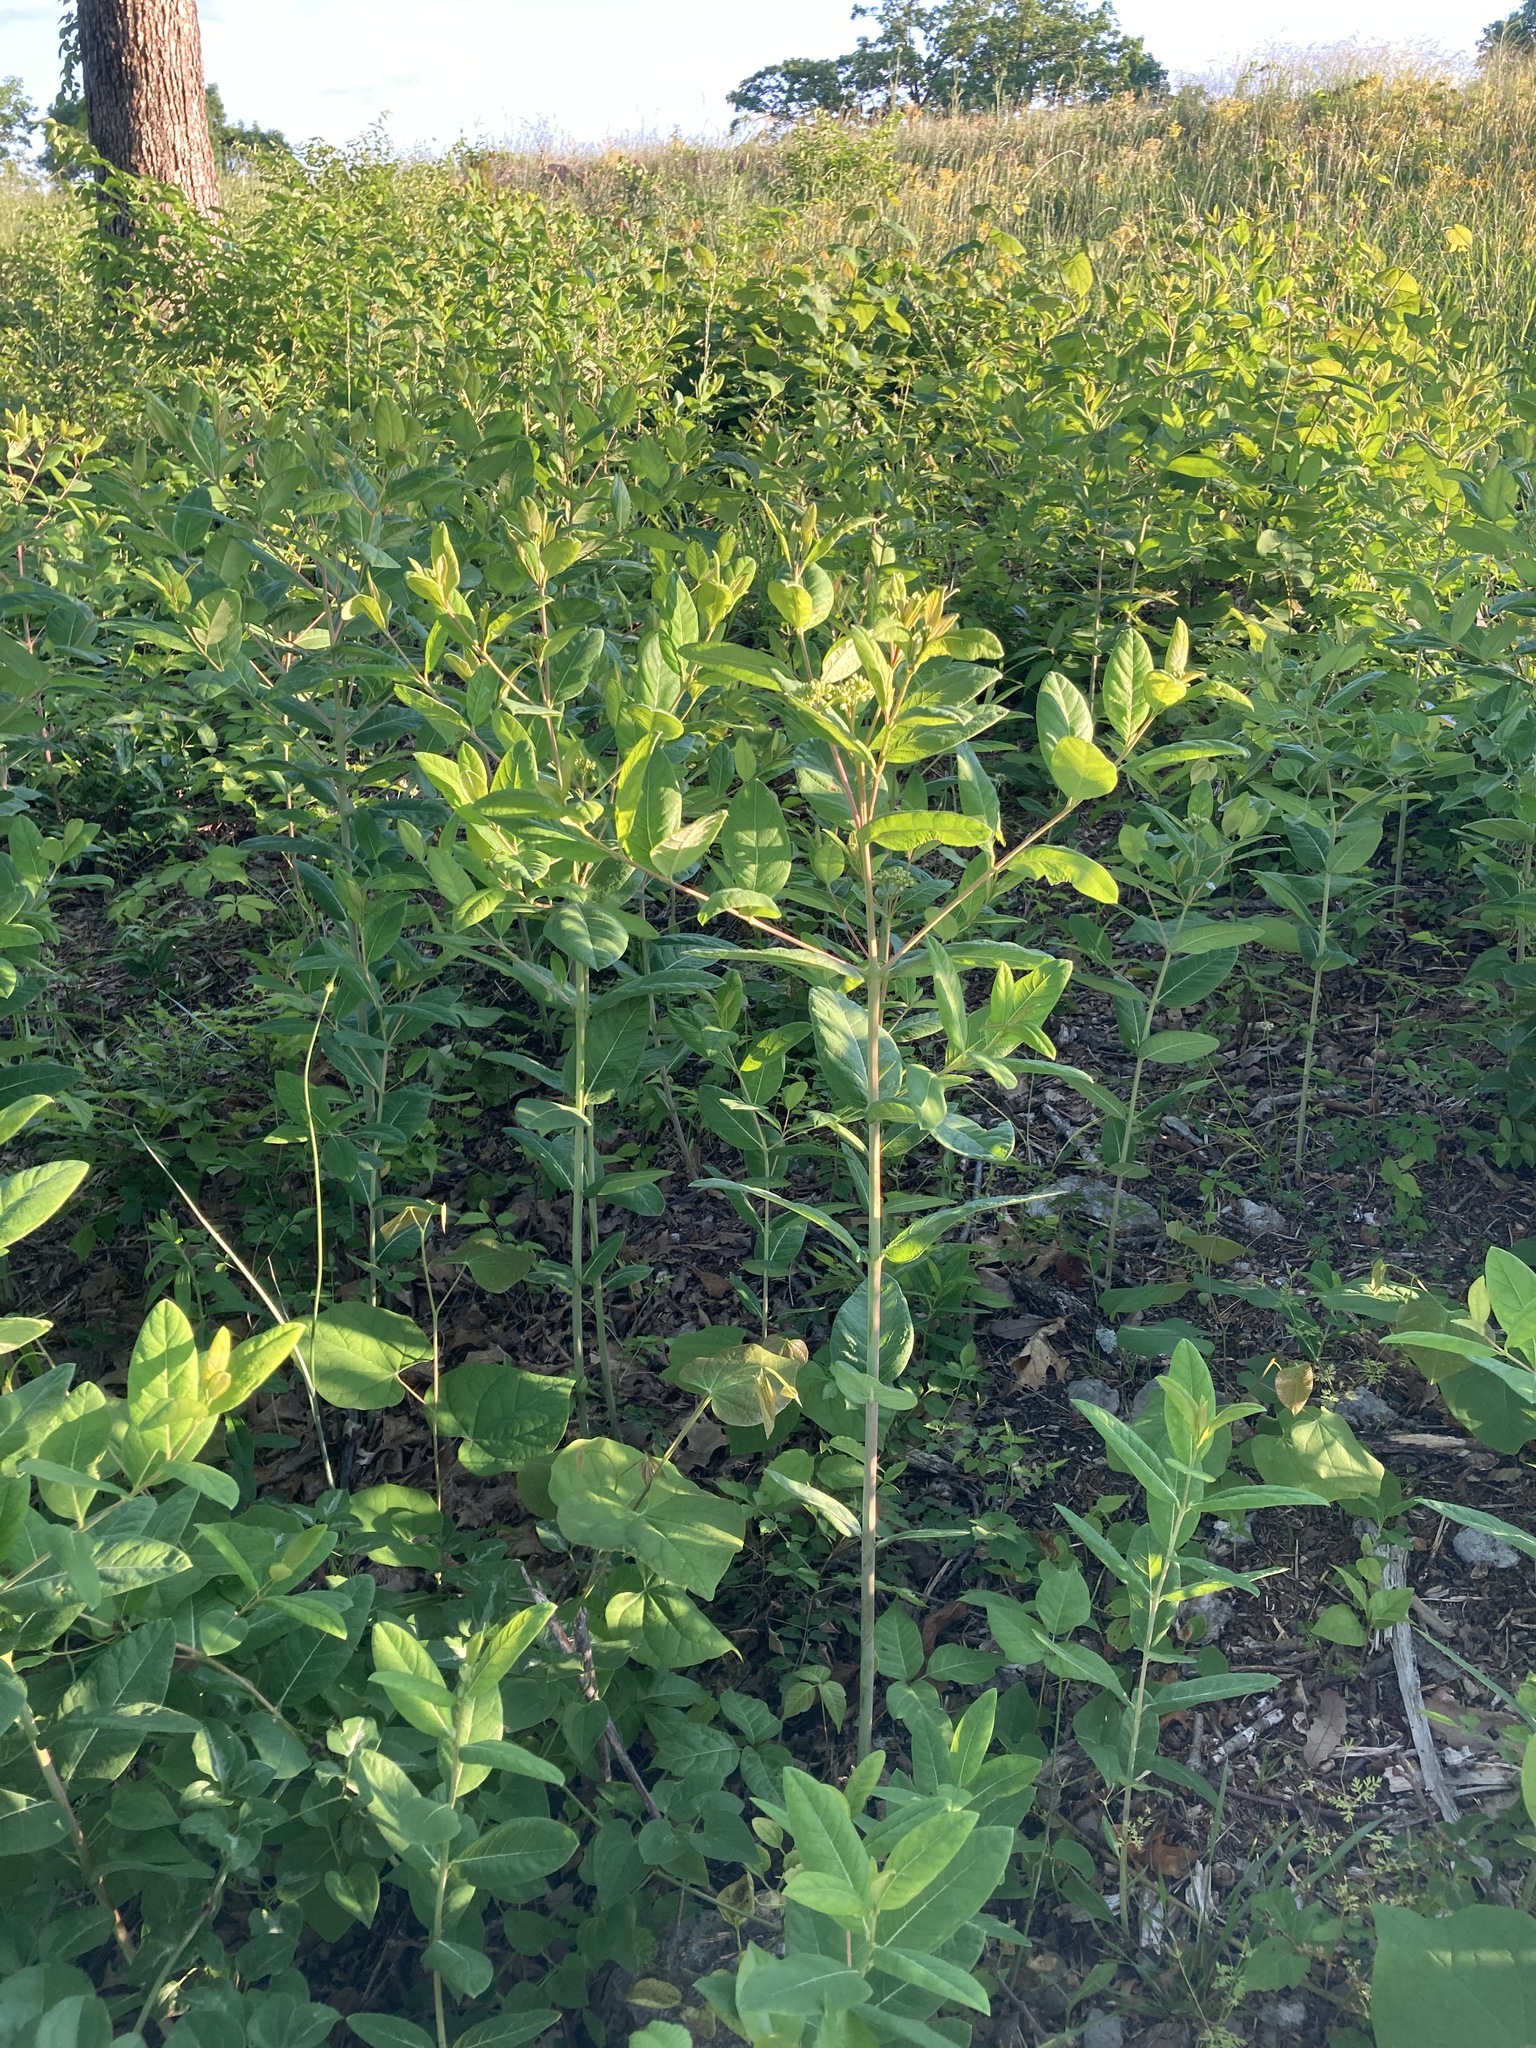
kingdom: Plantae
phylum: Tracheophyta
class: Magnoliopsida
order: Gentianales
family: Apocynaceae
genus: Apocynum
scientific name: Apocynum cannabinum
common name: Hemp dogbane
